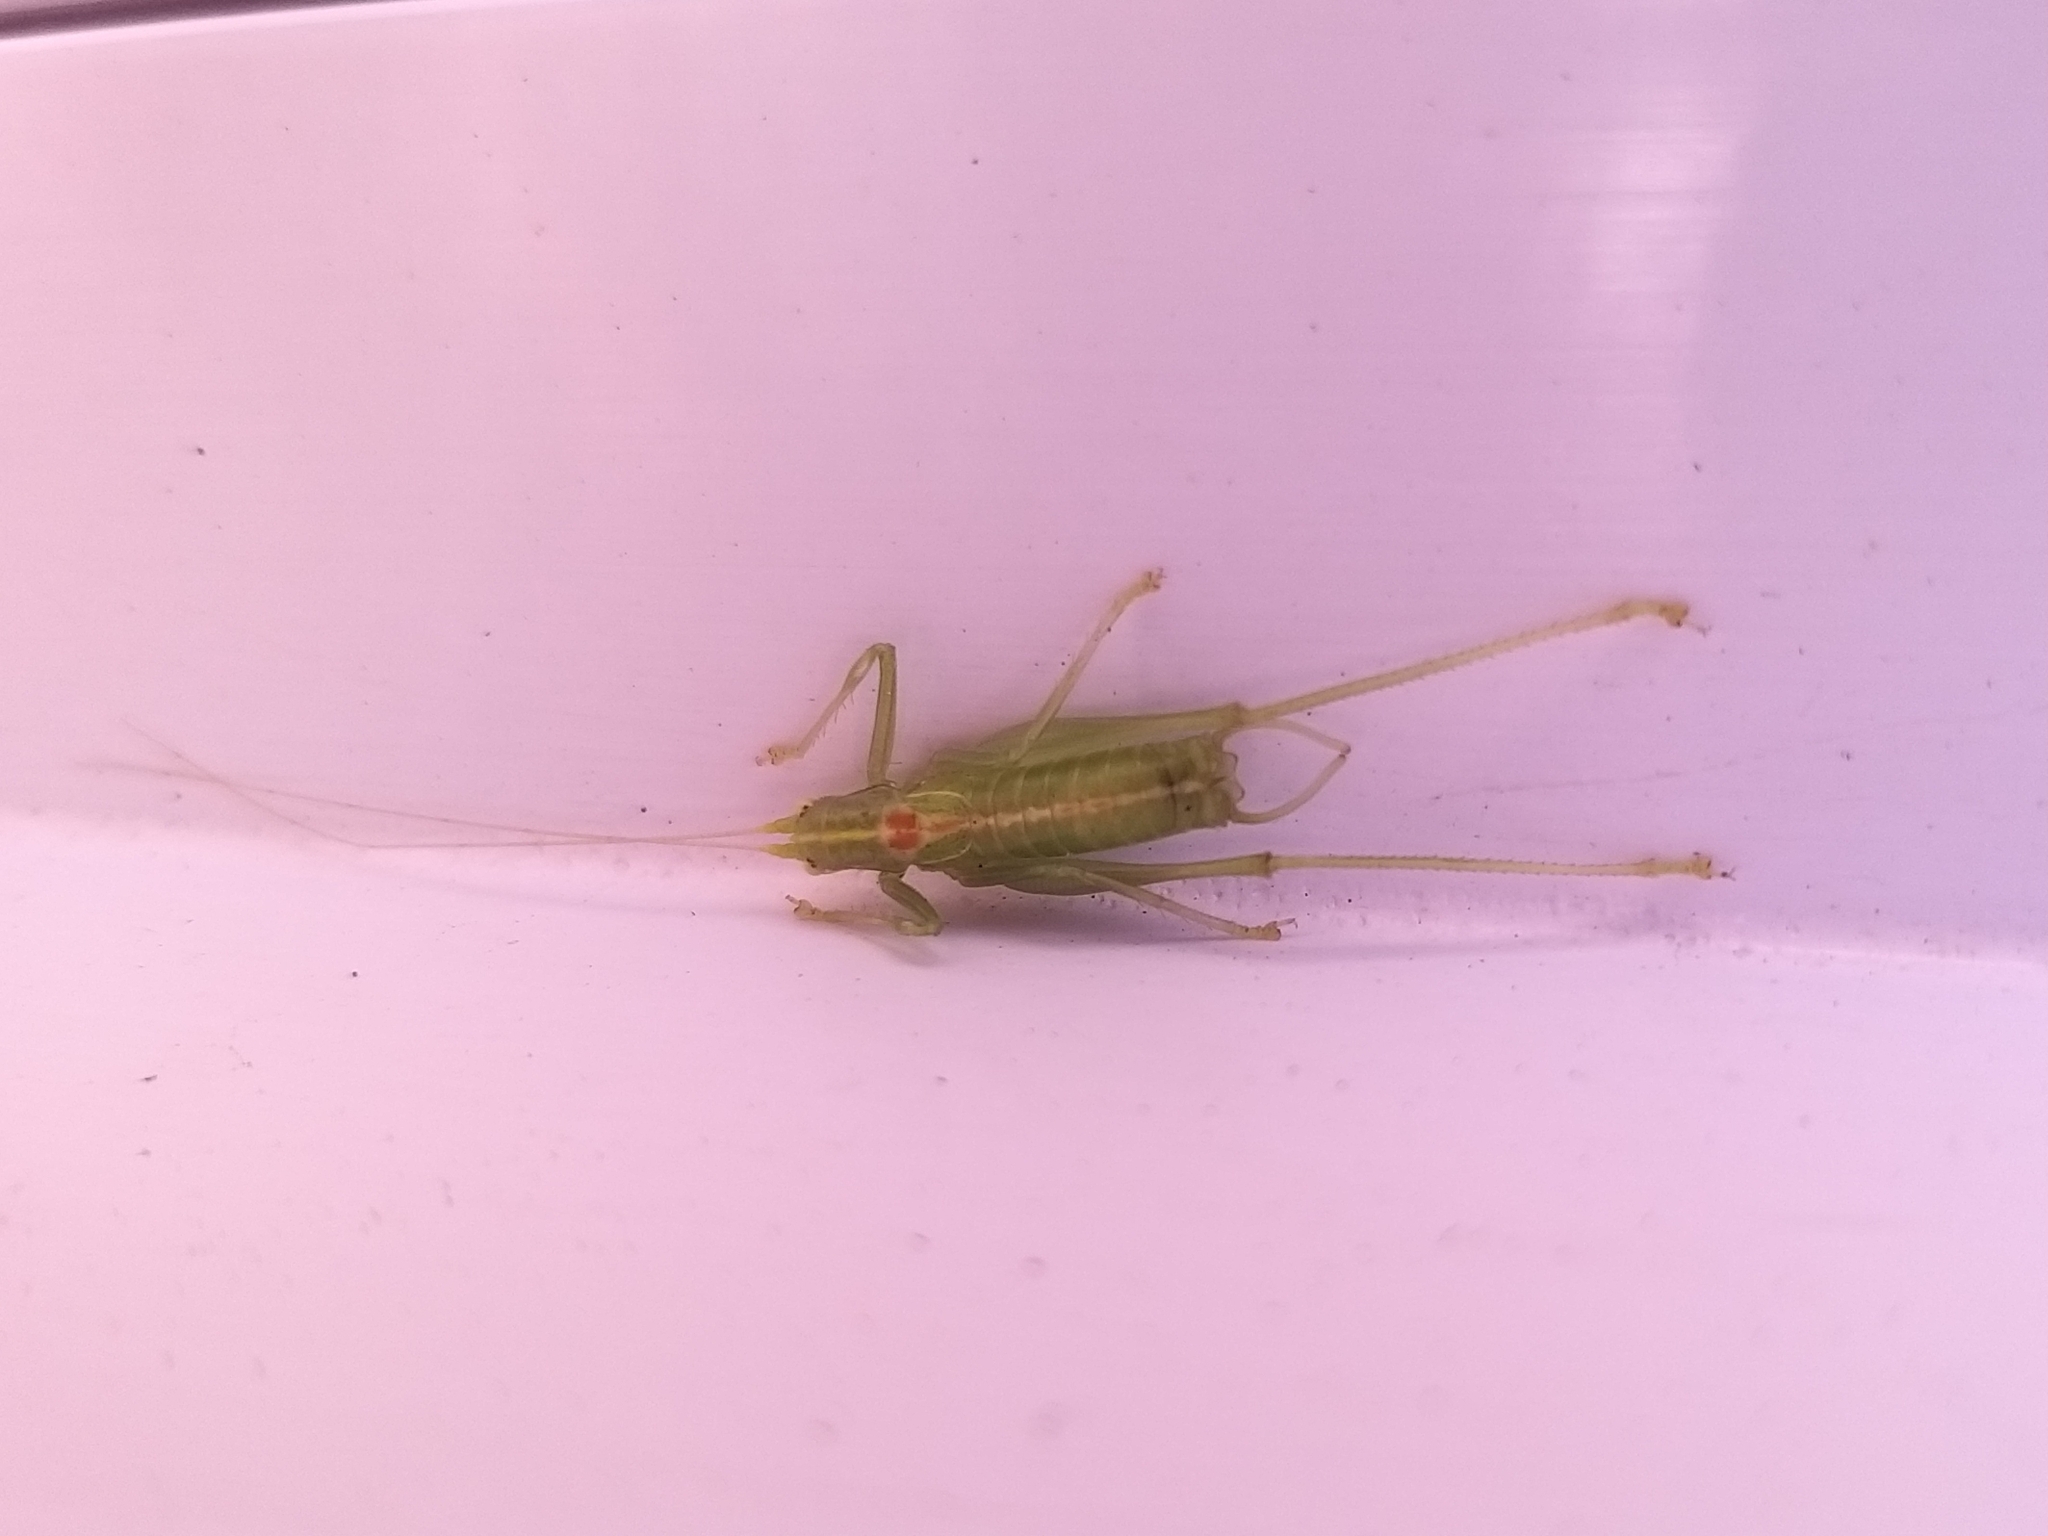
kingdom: Animalia
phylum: Arthropoda
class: Insecta
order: Orthoptera
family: Tettigoniidae
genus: Meconema
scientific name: Meconema meridionale
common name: Southern oak bush-cricket
